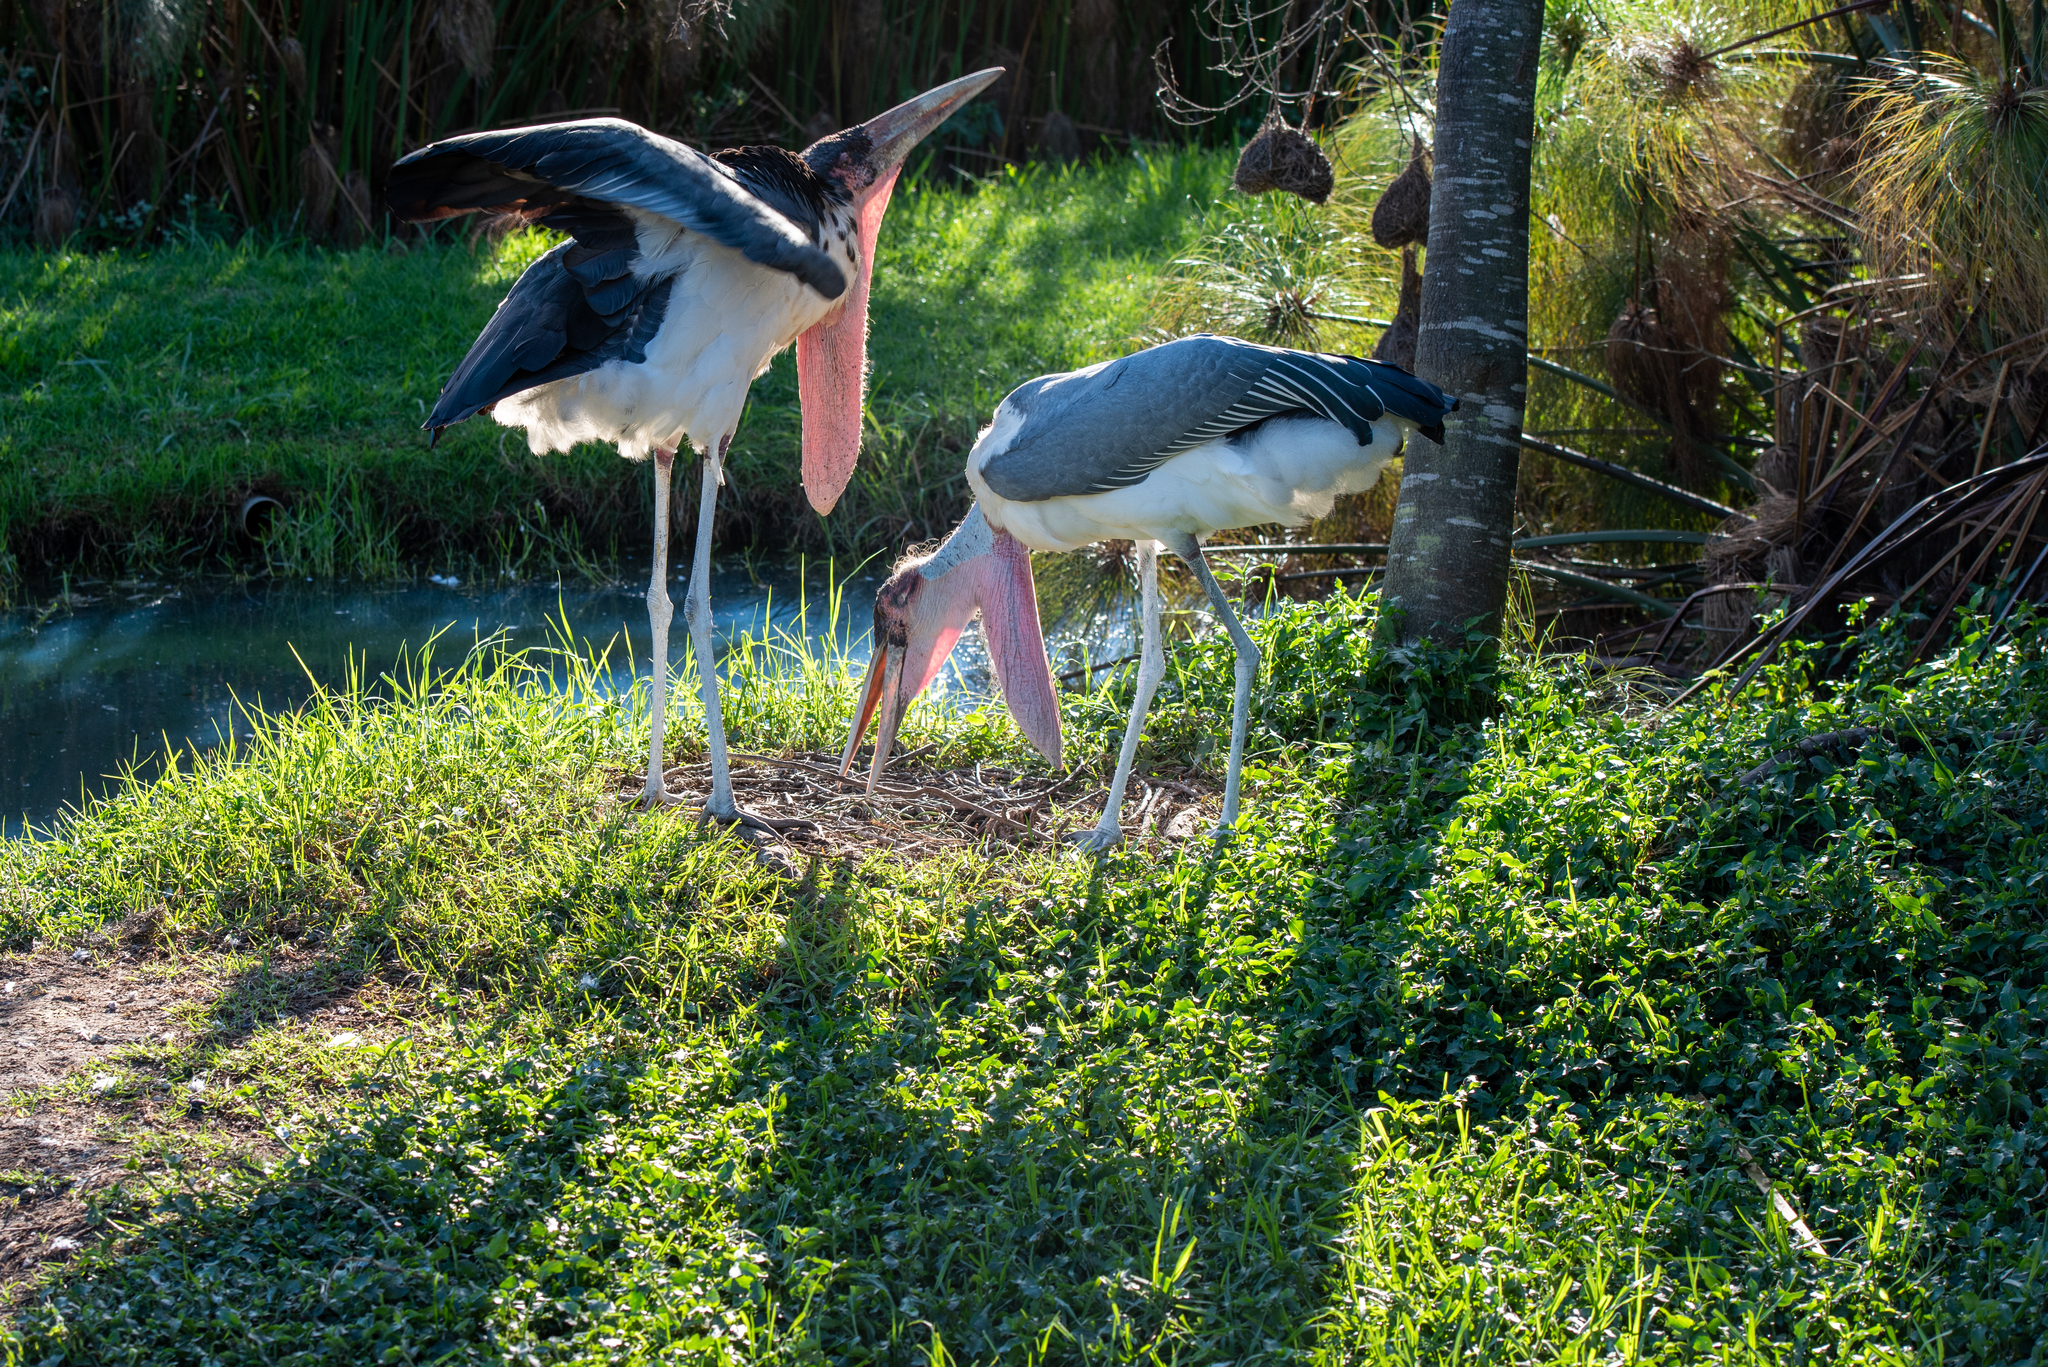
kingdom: Animalia
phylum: Chordata
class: Aves
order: Ciconiiformes
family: Ciconiidae
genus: Leptoptilos
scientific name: Leptoptilos crumenifer
